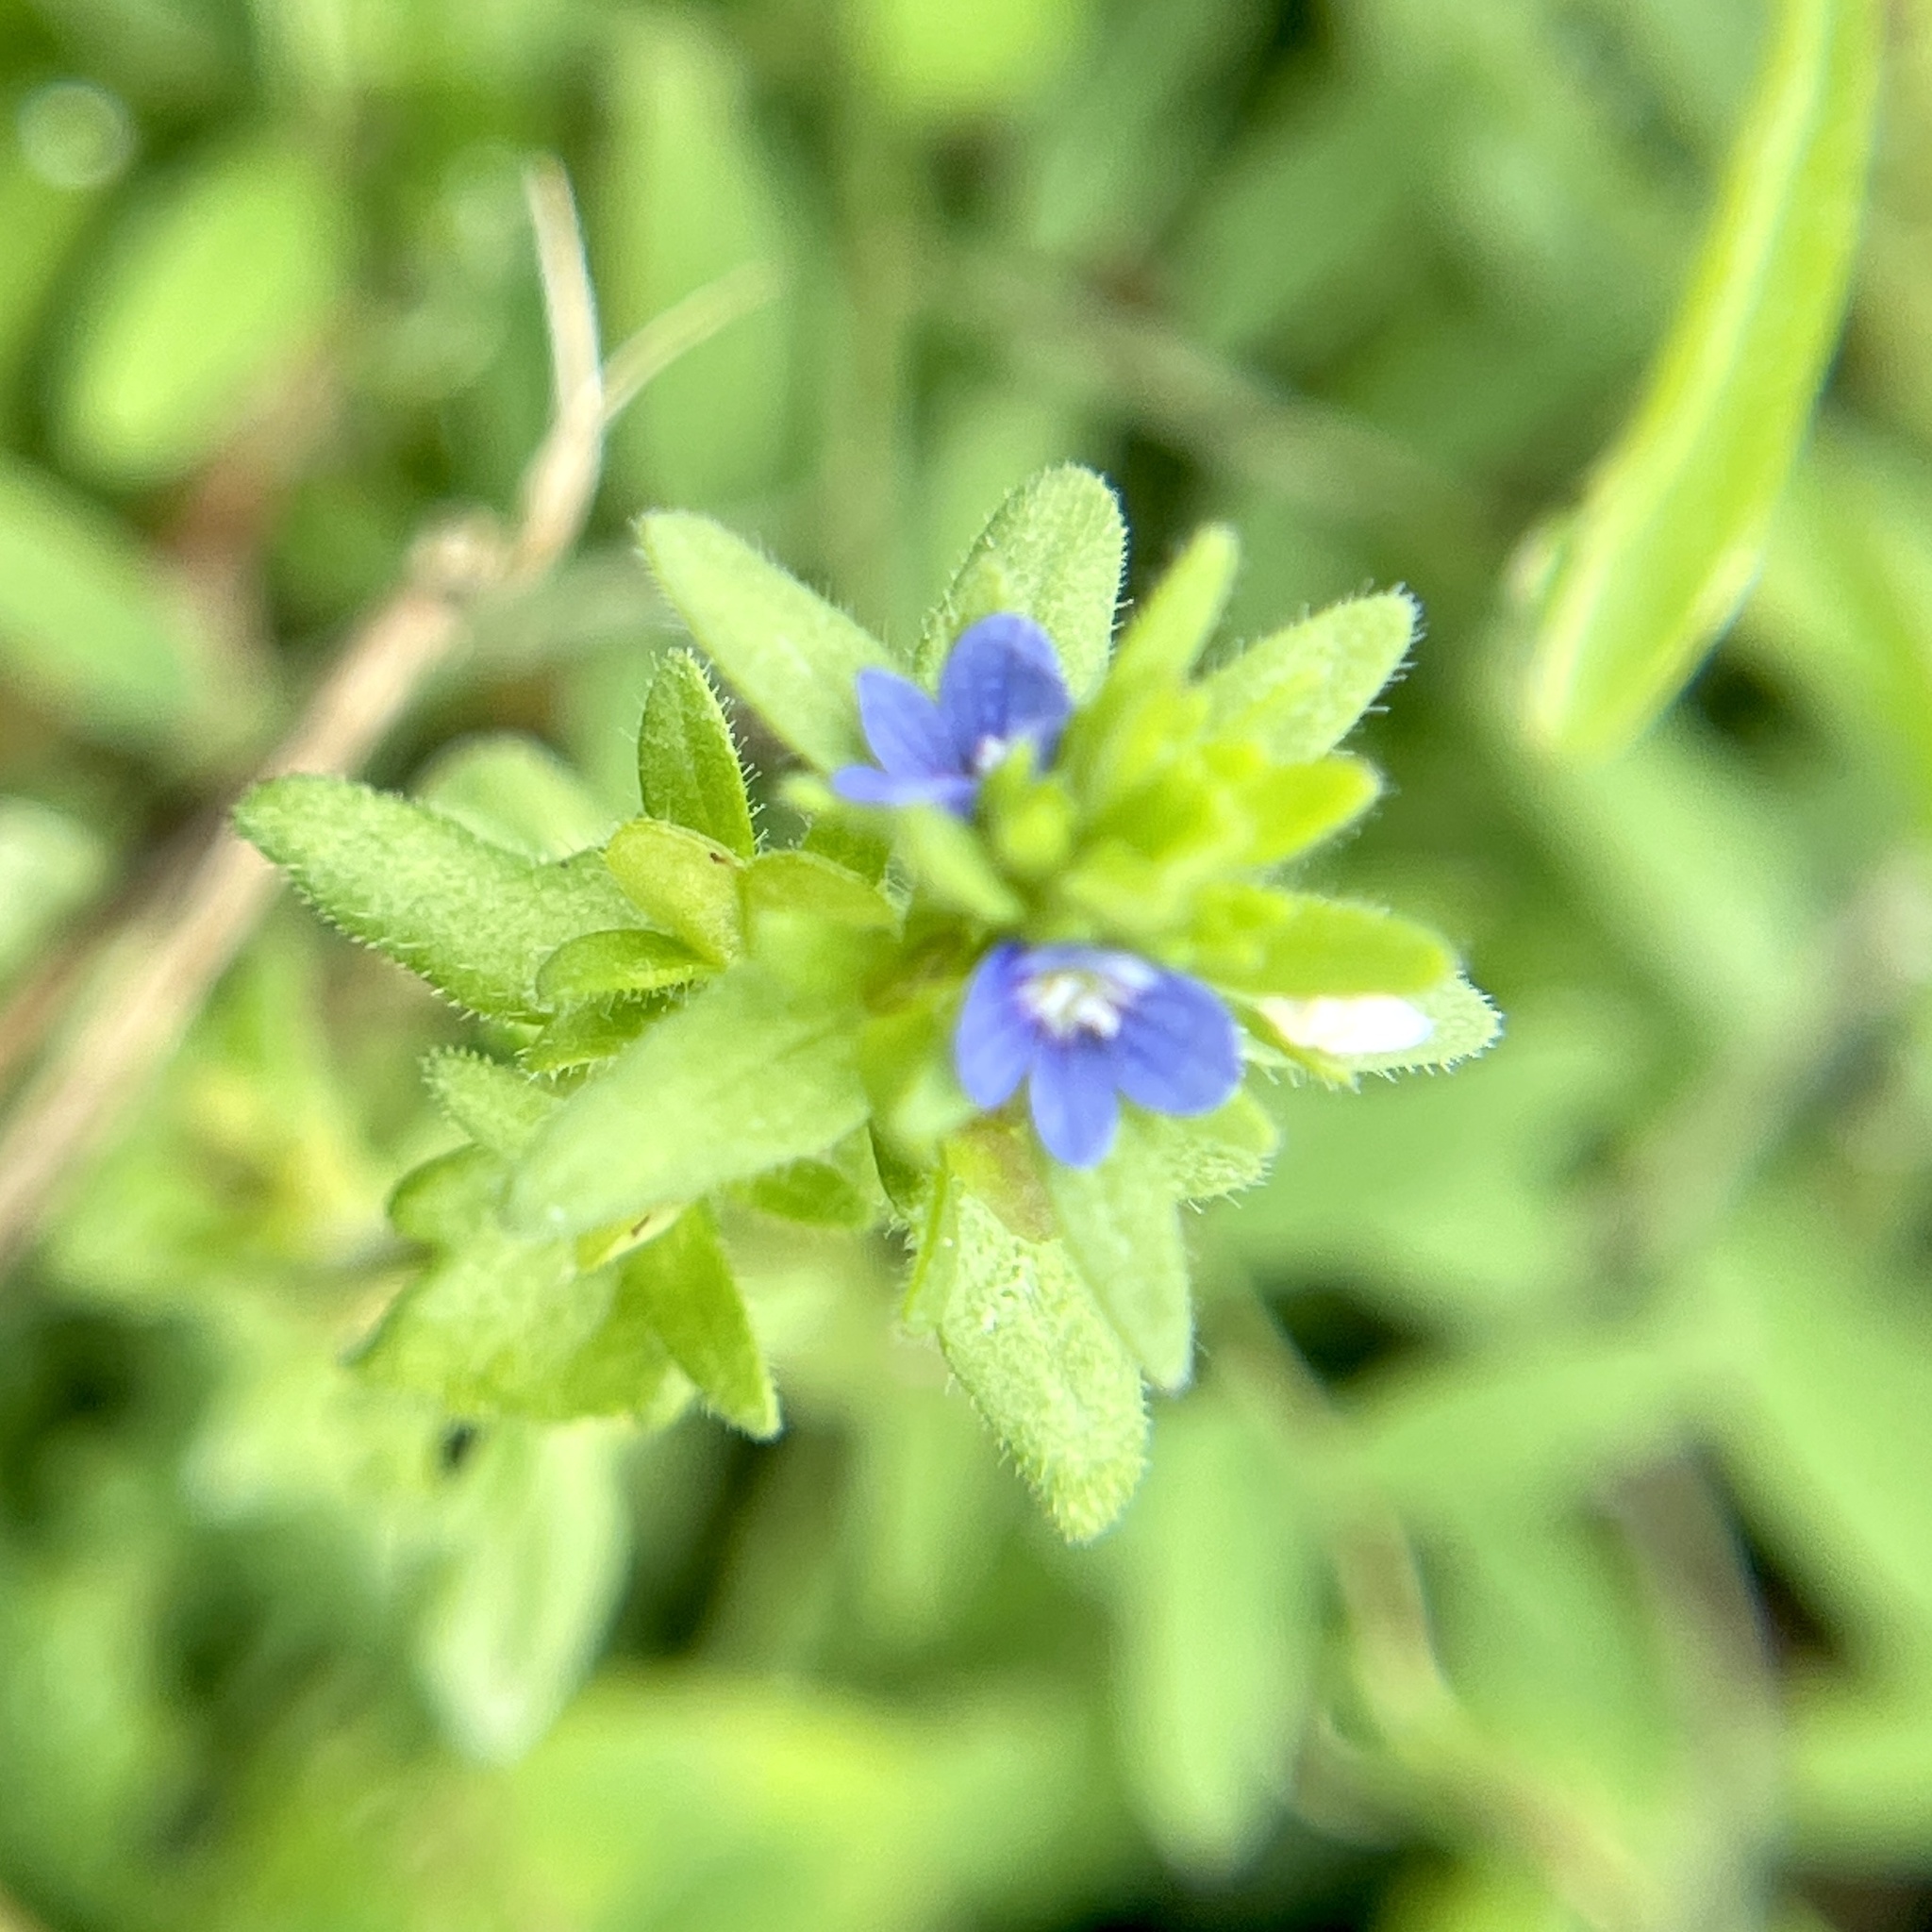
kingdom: Plantae
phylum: Tracheophyta
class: Magnoliopsida
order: Lamiales
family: Plantaginaceae
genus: Veronica
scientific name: Veronica arvensis
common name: Corn speedwell
